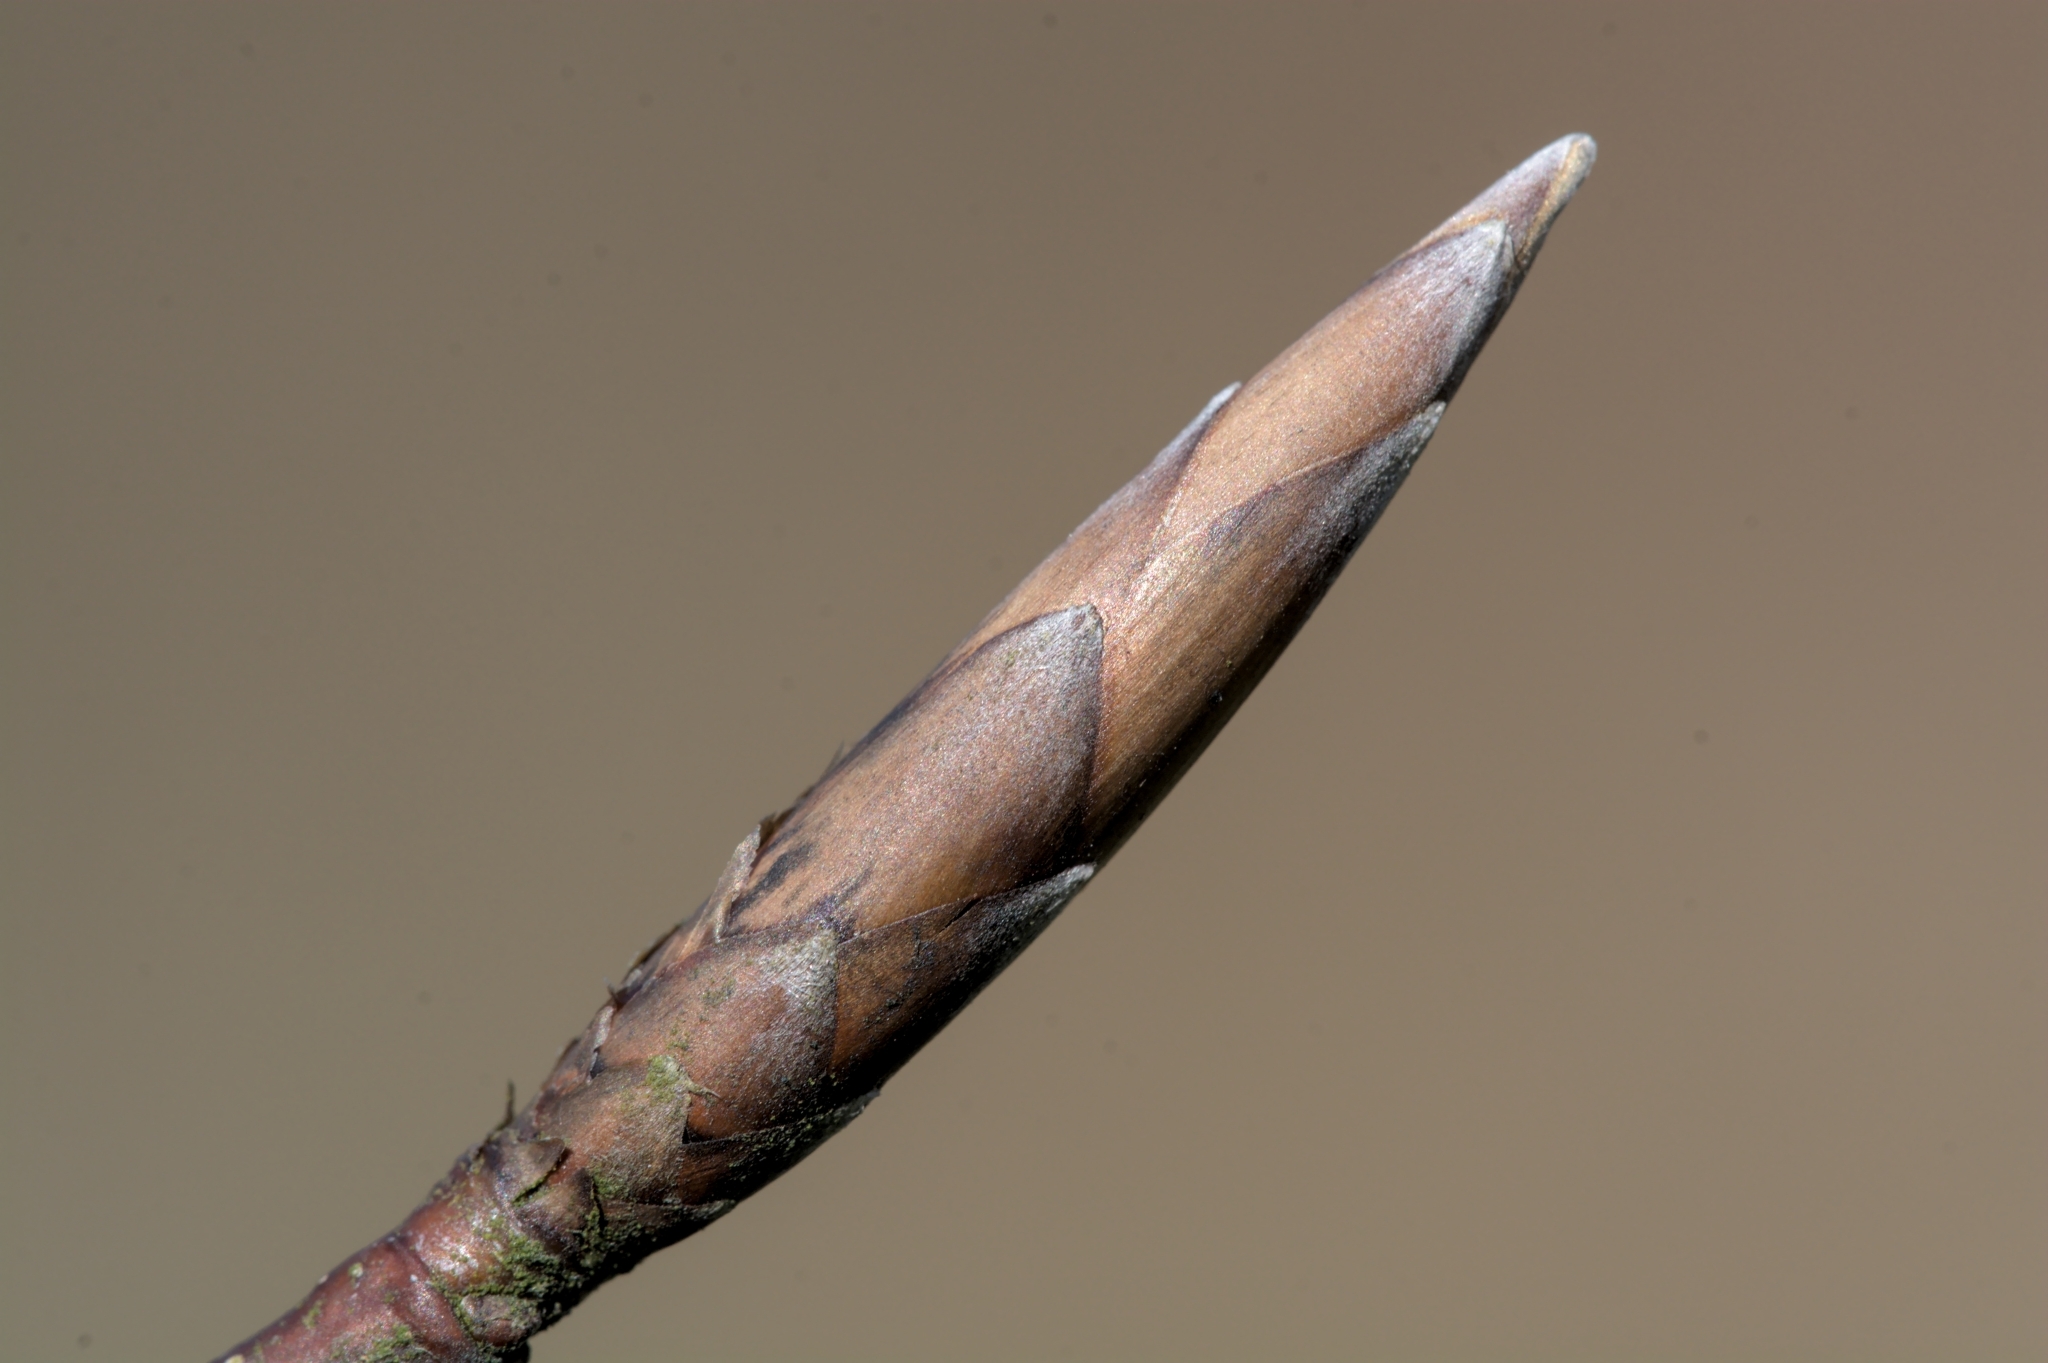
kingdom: Plantae
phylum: Tracheophyta
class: Magnoliopsida
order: Fagales
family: Fagaceae
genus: Fagus
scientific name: Fagus sylvatica
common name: Beech
